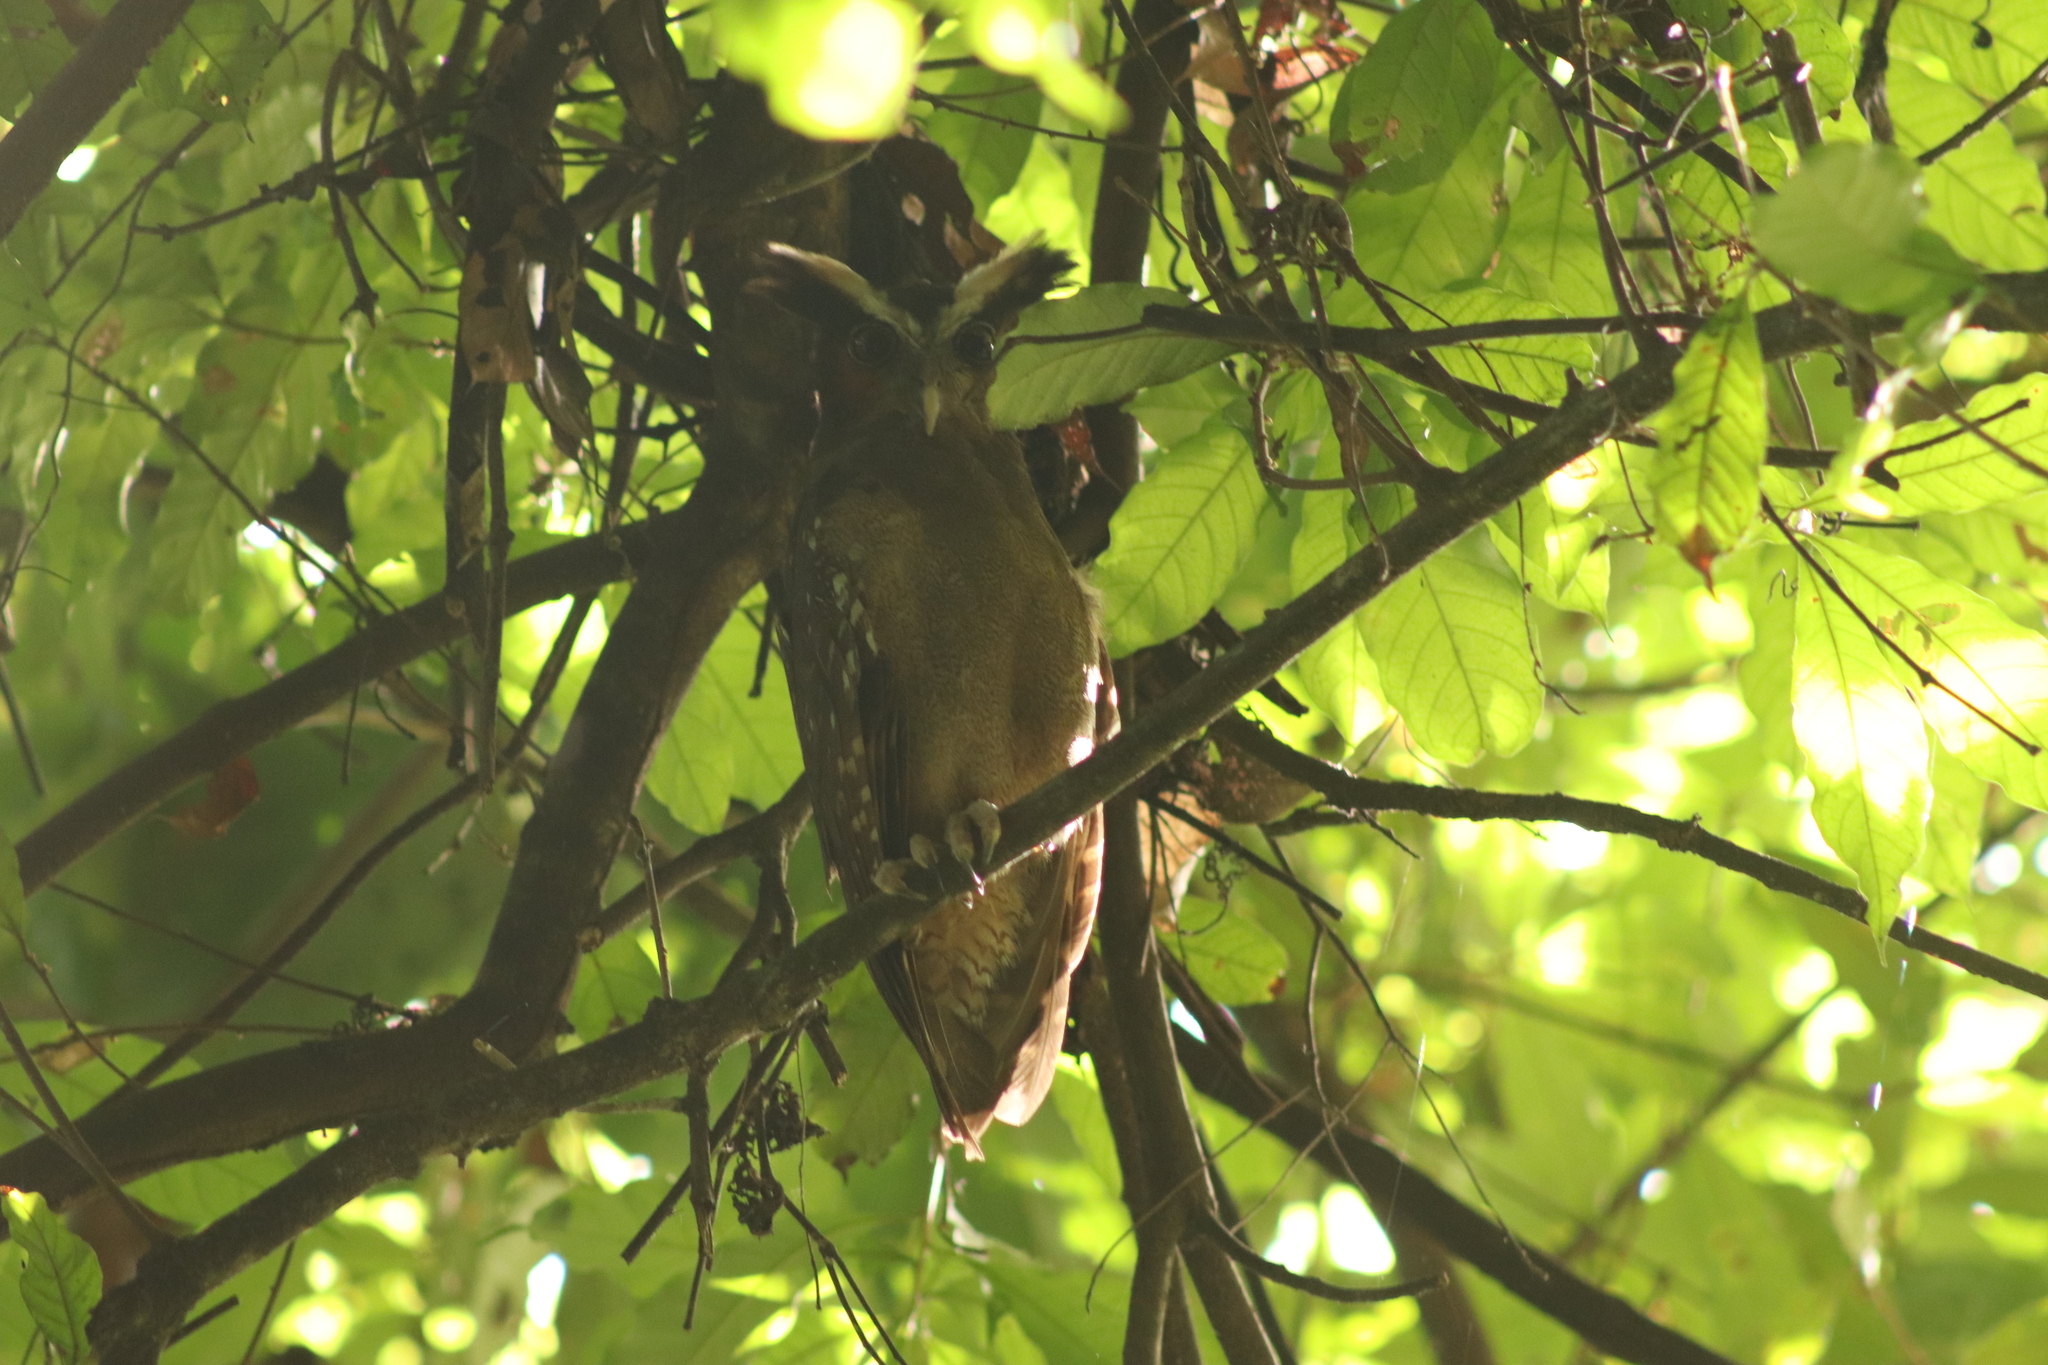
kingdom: Animalia
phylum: Chordata
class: Aves
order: Strigiformes
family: Strigidae
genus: Lophostrix
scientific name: Lophostrix cristata
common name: Crested owl
